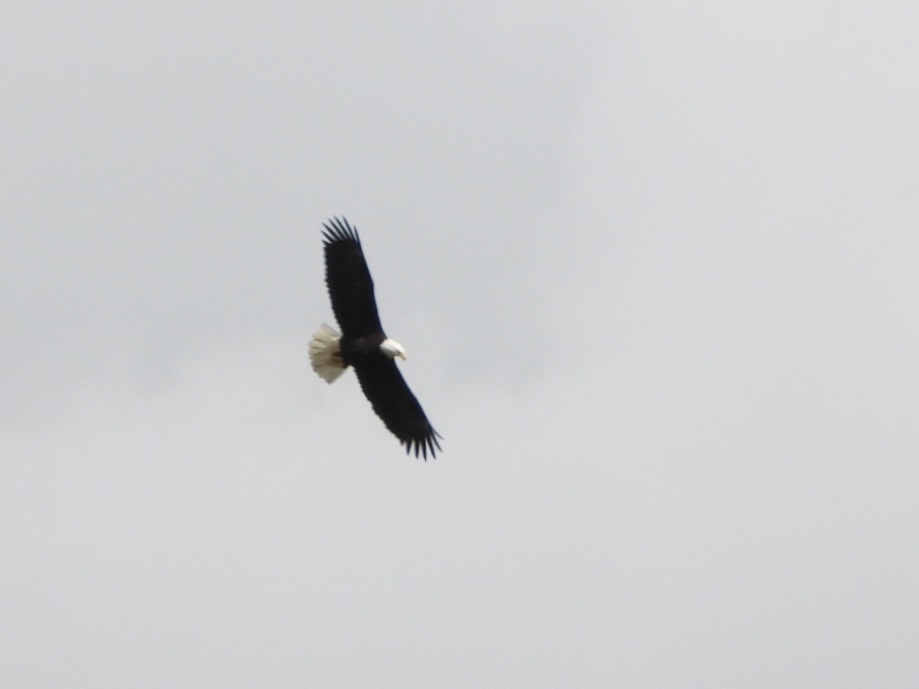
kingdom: Animalia
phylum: Chordata
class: Aves
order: Accipitriformes
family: Accipitridae
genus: Haliaeetus
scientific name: Haliaeetus leucocephalus
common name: Bald eagle
